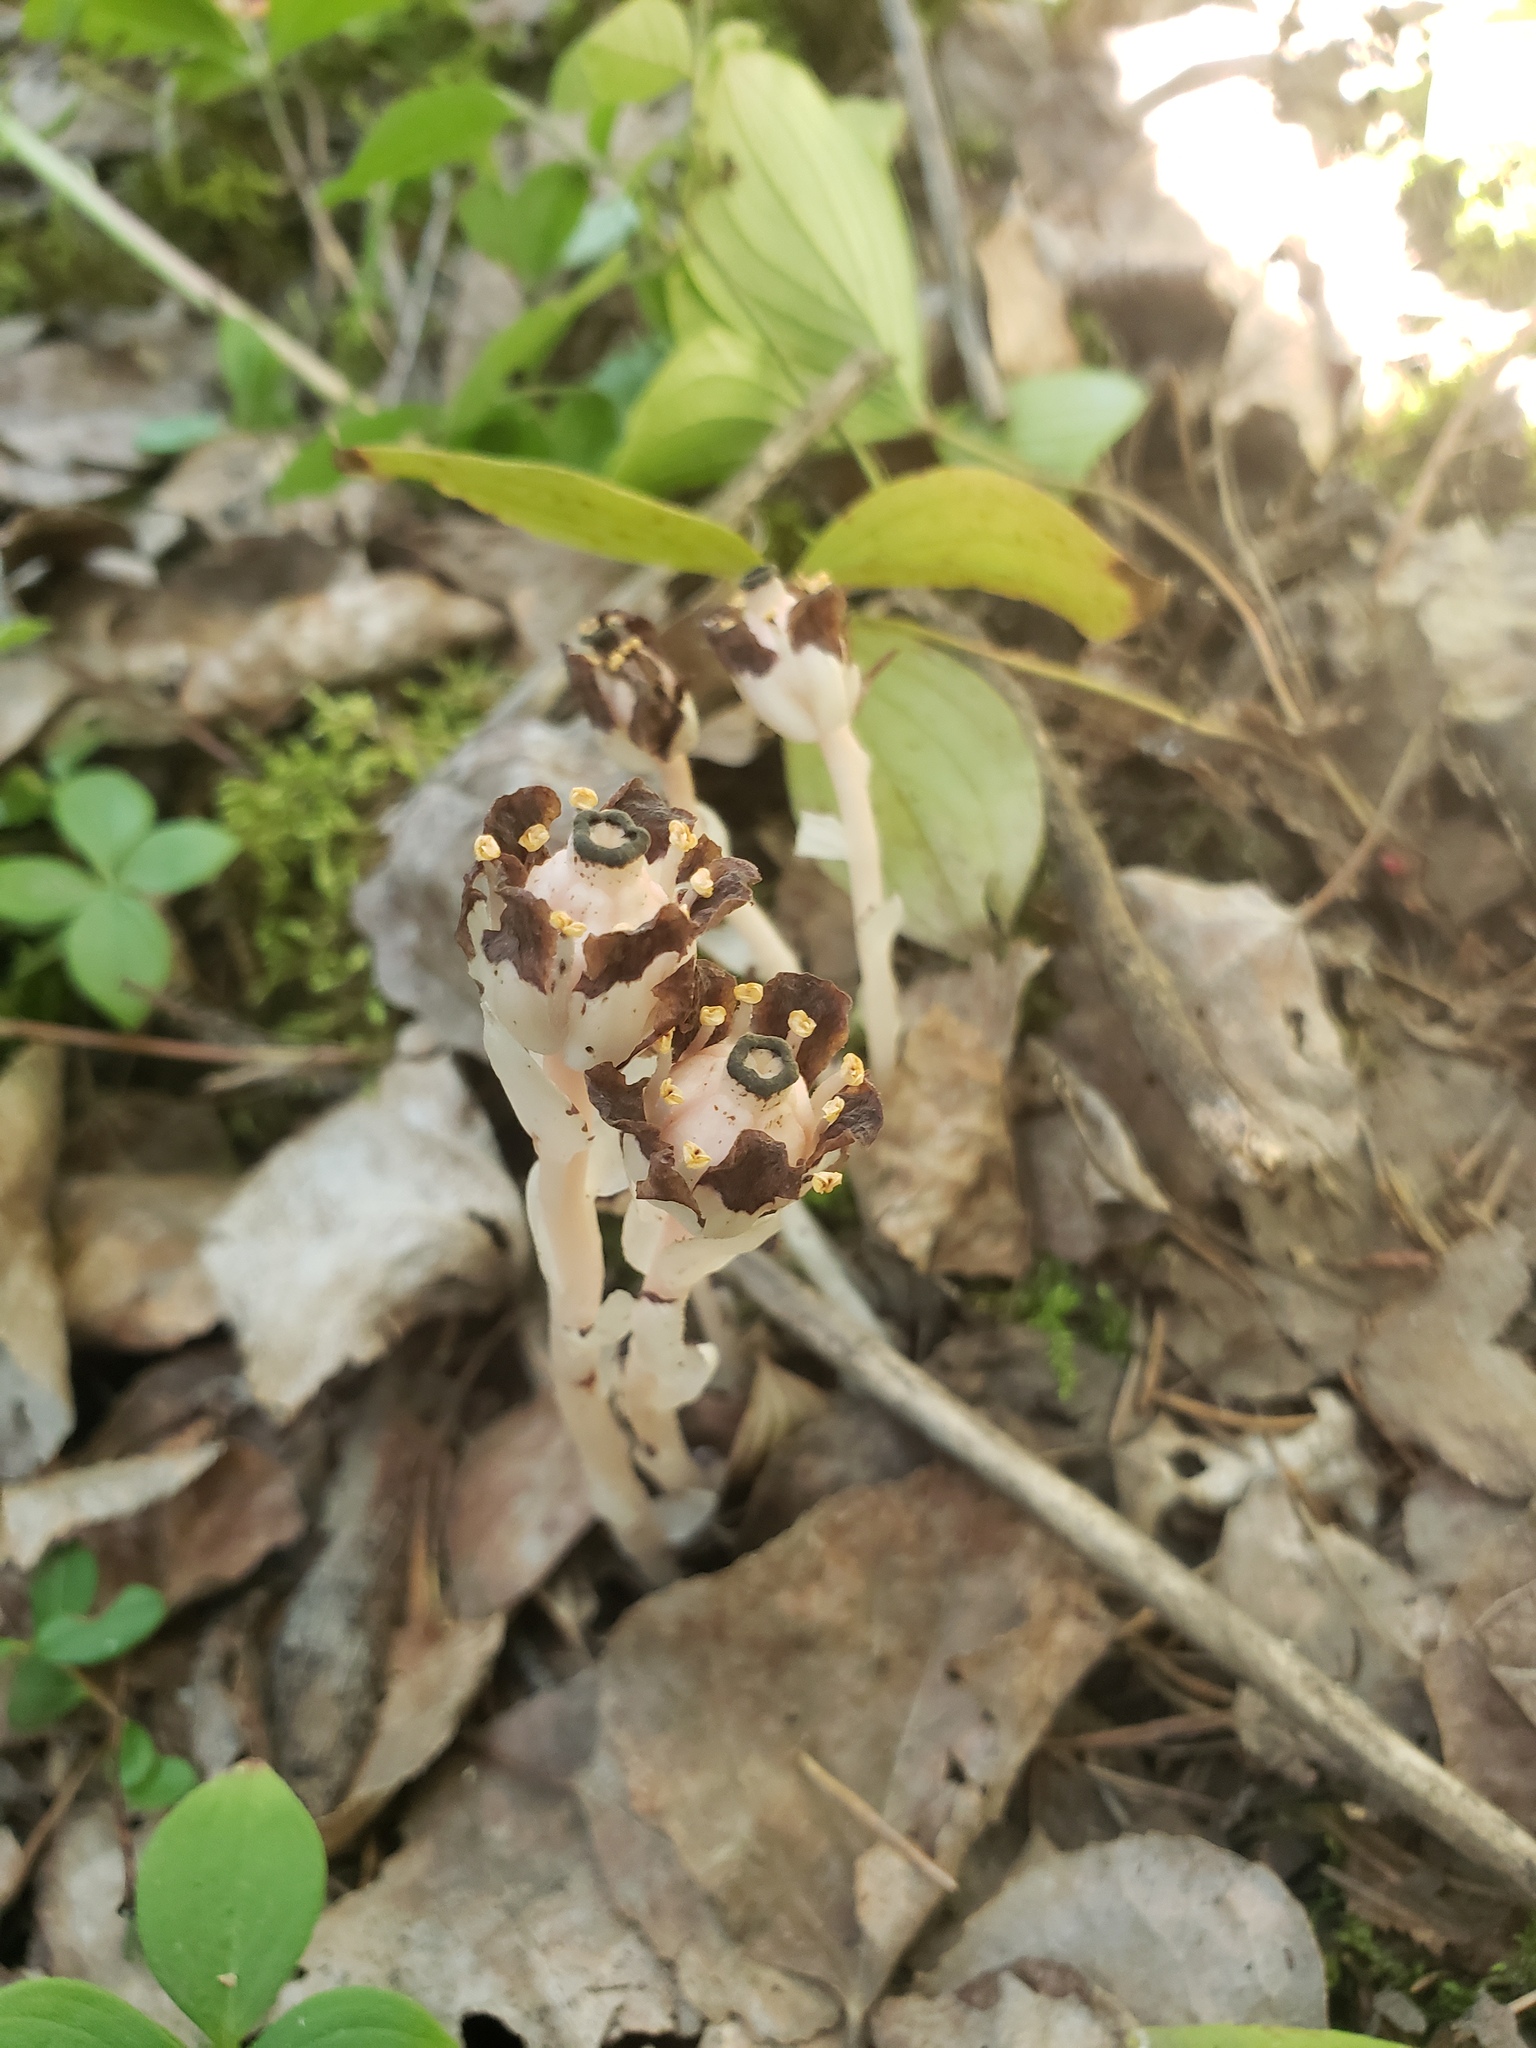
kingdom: Plantae
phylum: Tracheophyta
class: Magnoliopsida
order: Ericales
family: Ericaceae
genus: Monotropa
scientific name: Monotropa uniflora
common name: Convulsion root
